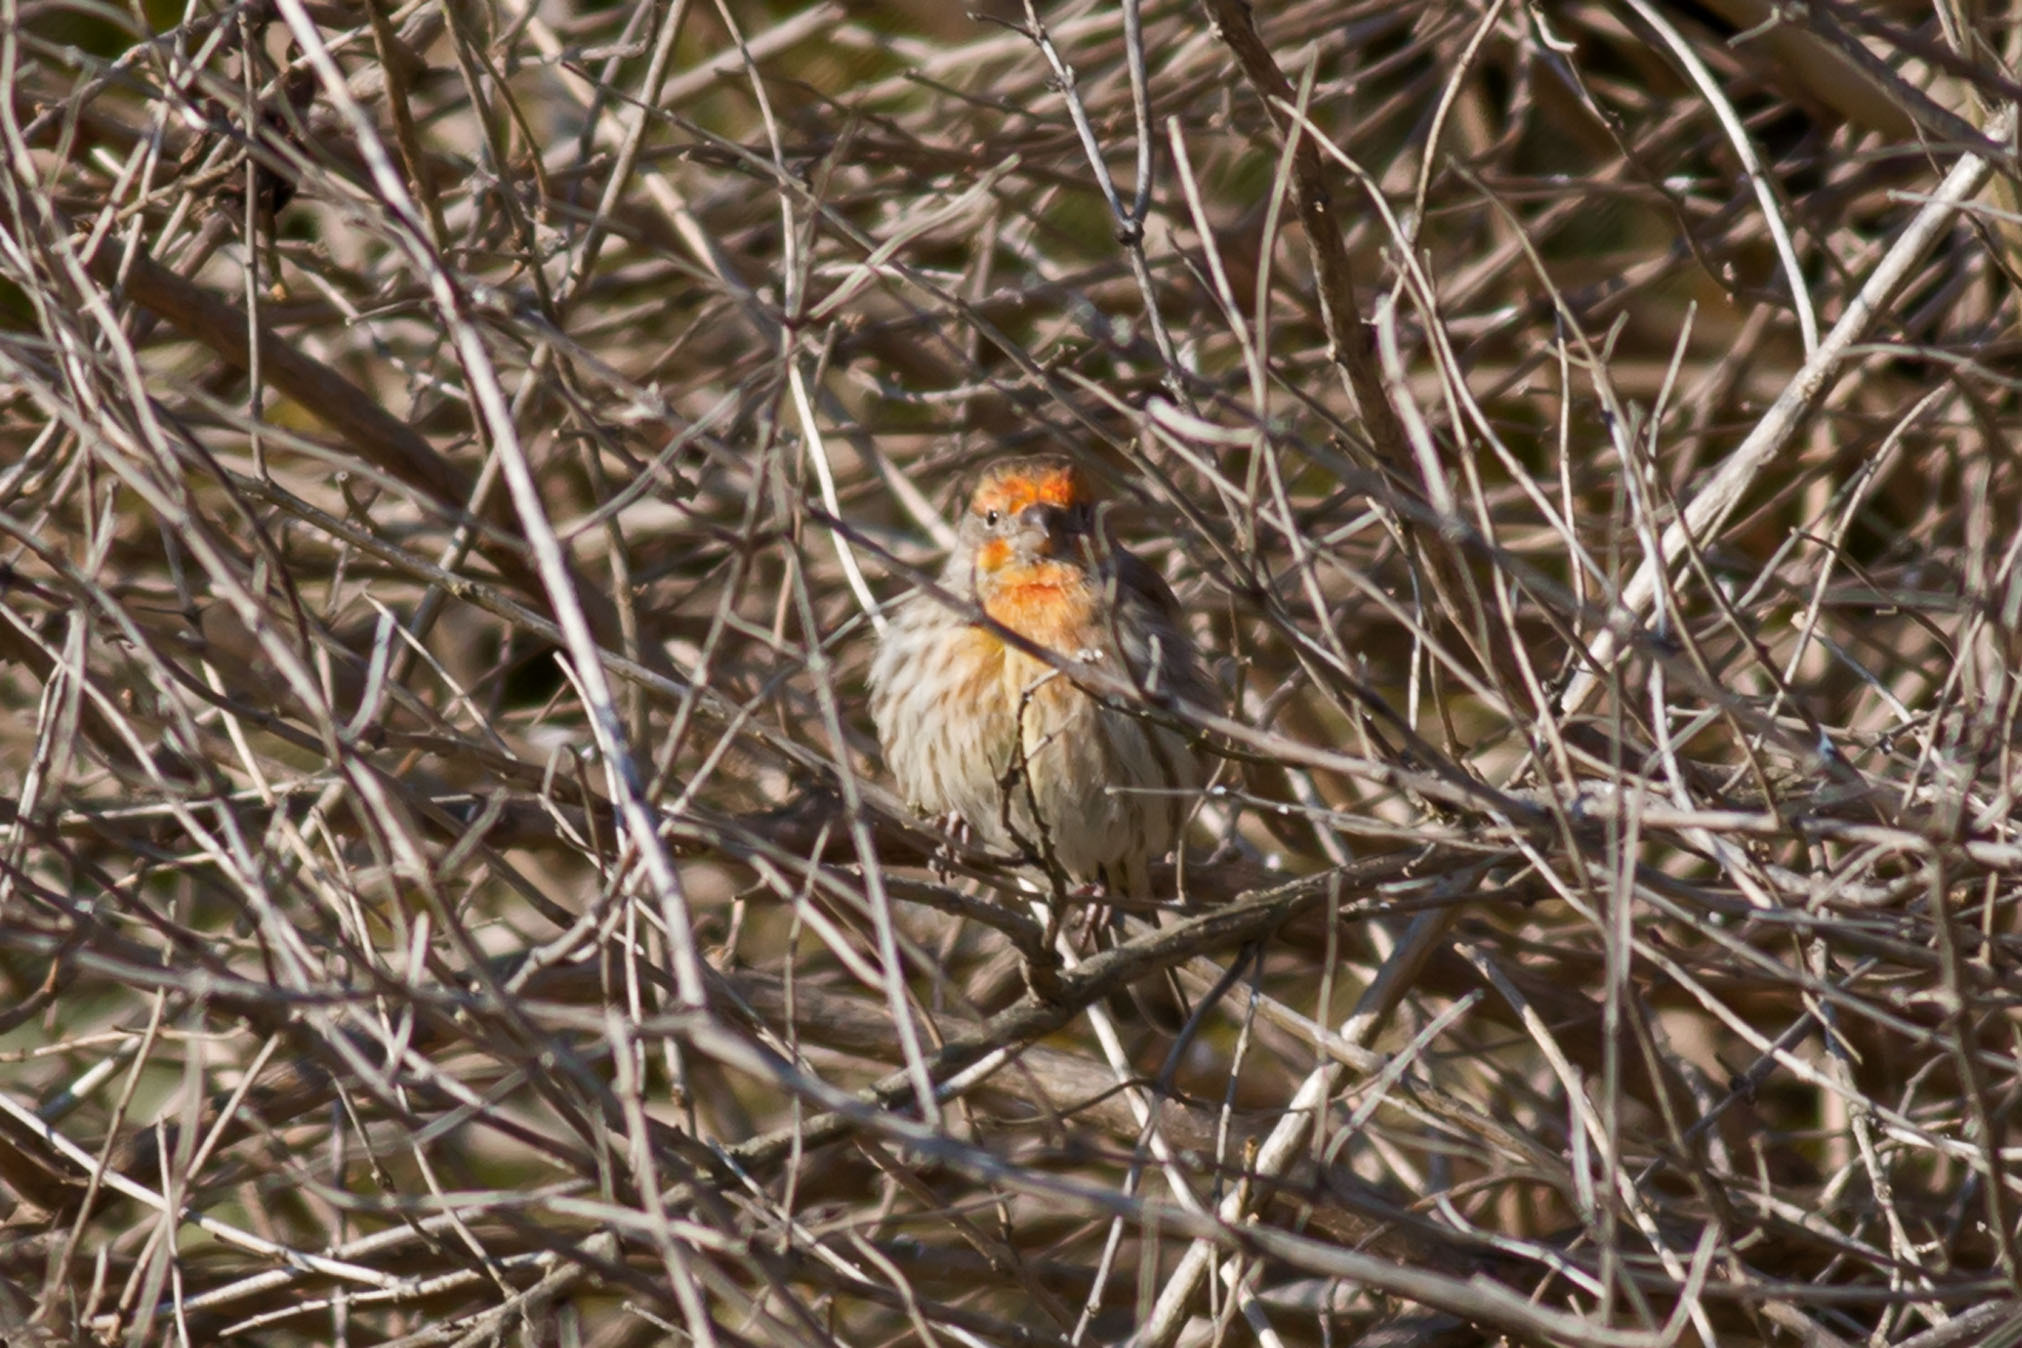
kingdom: Animalia
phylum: Chordata
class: Aves
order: Passeriformes
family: Fringillidae
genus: Haemorhous
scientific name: Haemorhous mexicanus
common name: House finch
